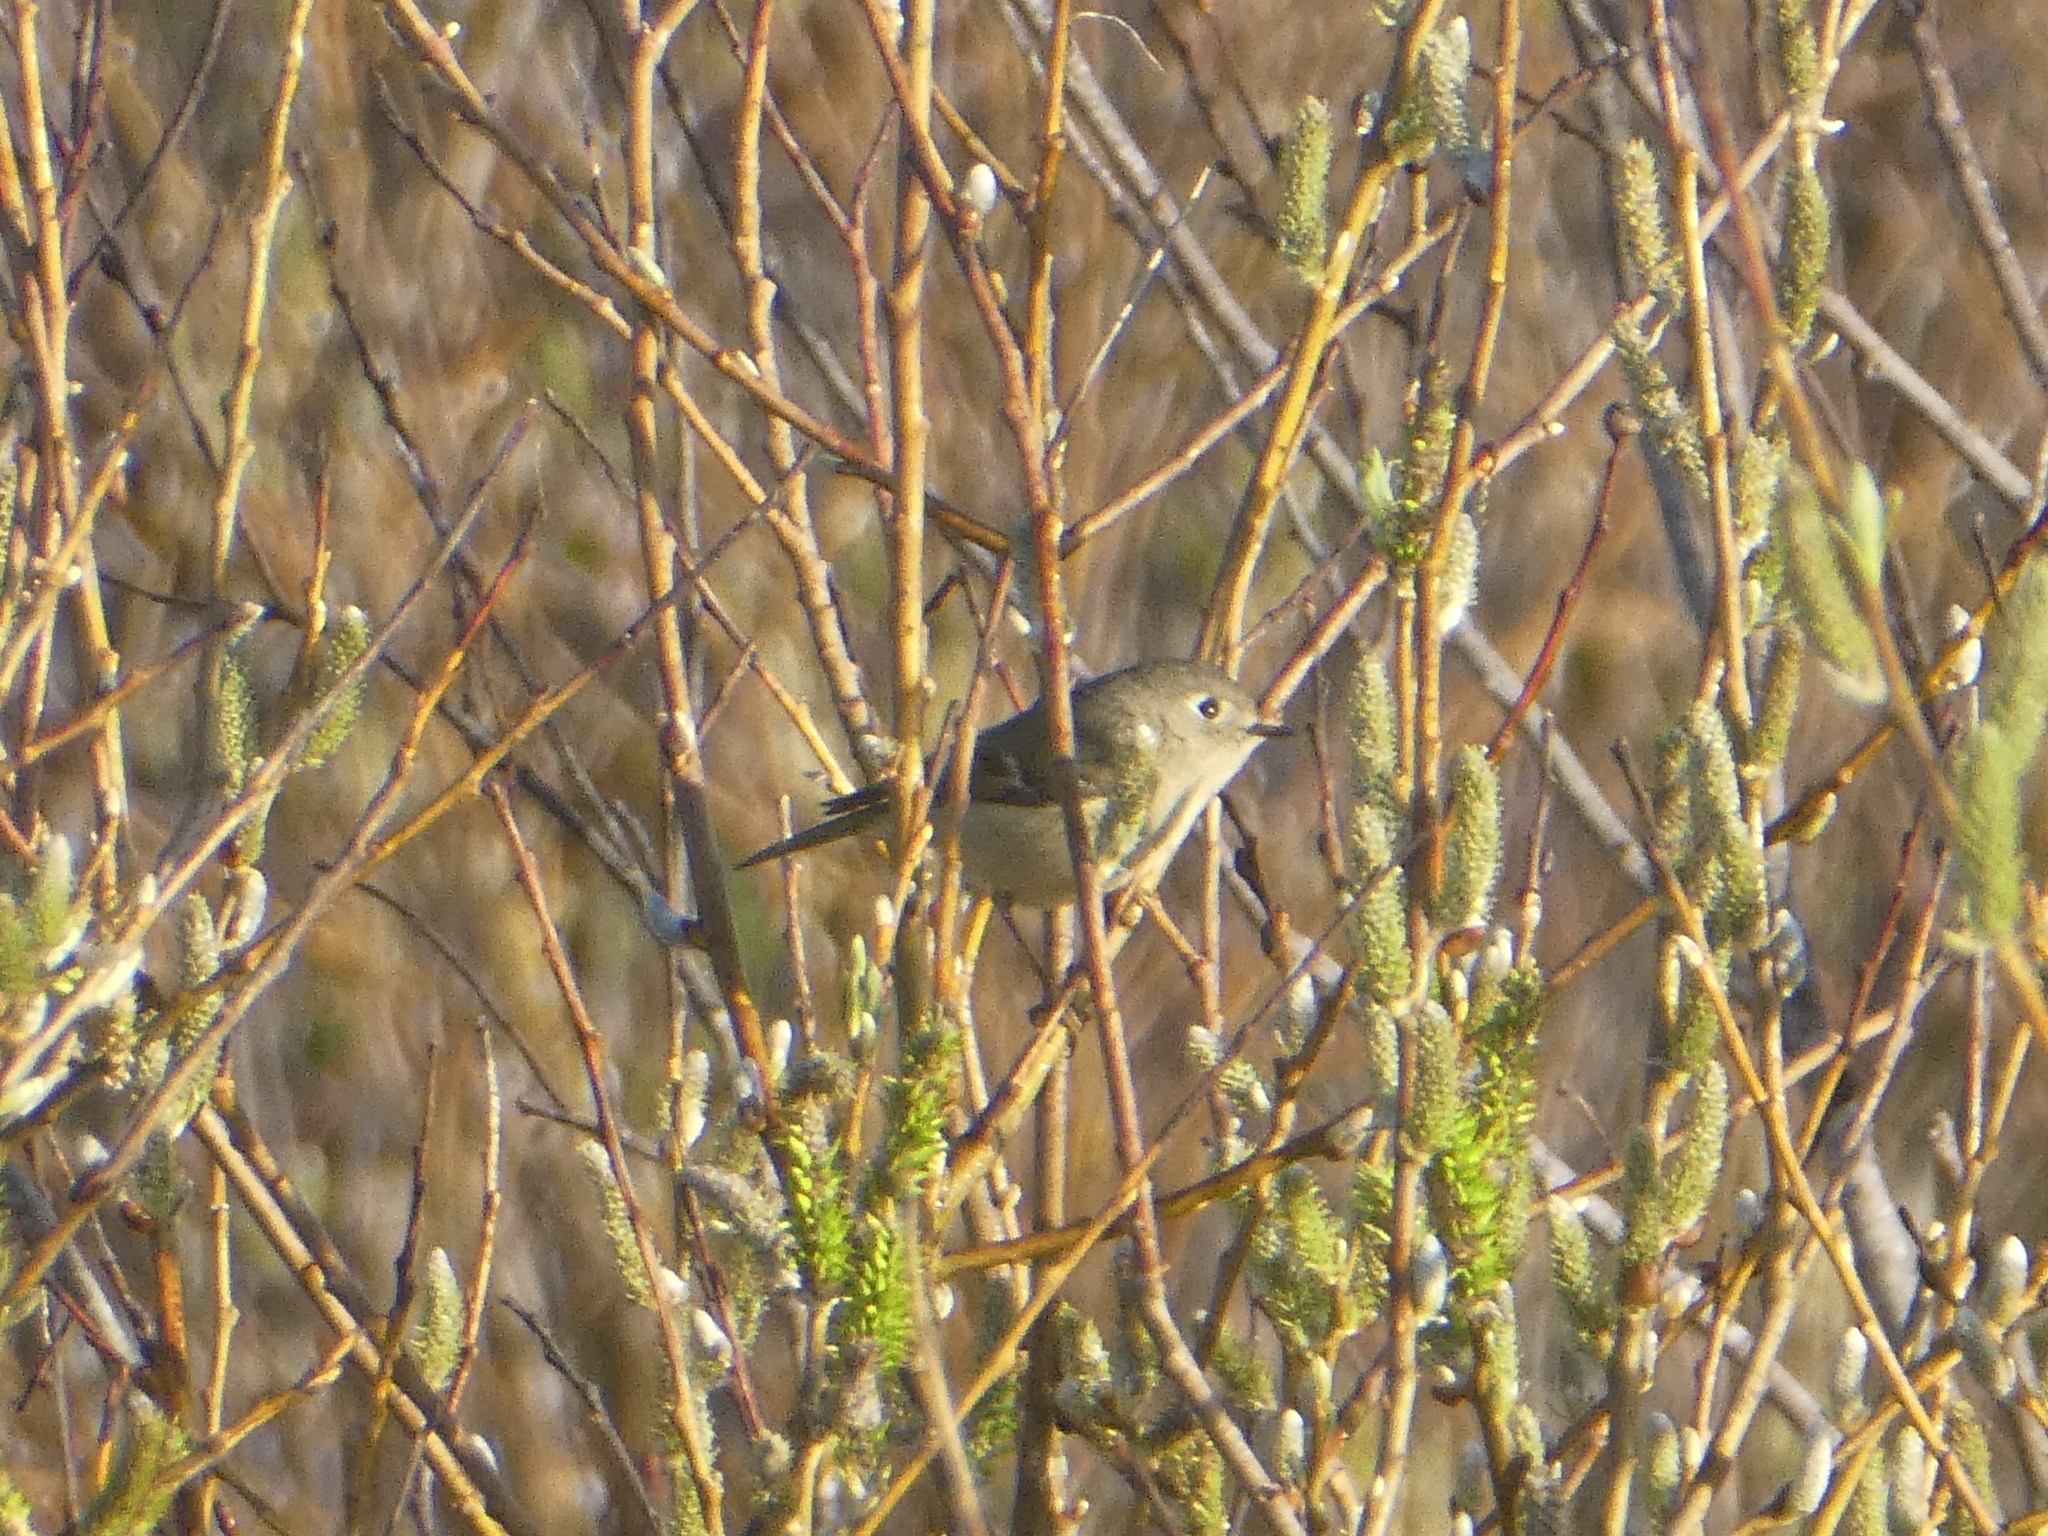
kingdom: Animalia
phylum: Chordata
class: Aves
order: Passeriformes
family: Regulidae
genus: Regulus
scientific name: Regulus calendula
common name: Ruby-crowned kinglet
